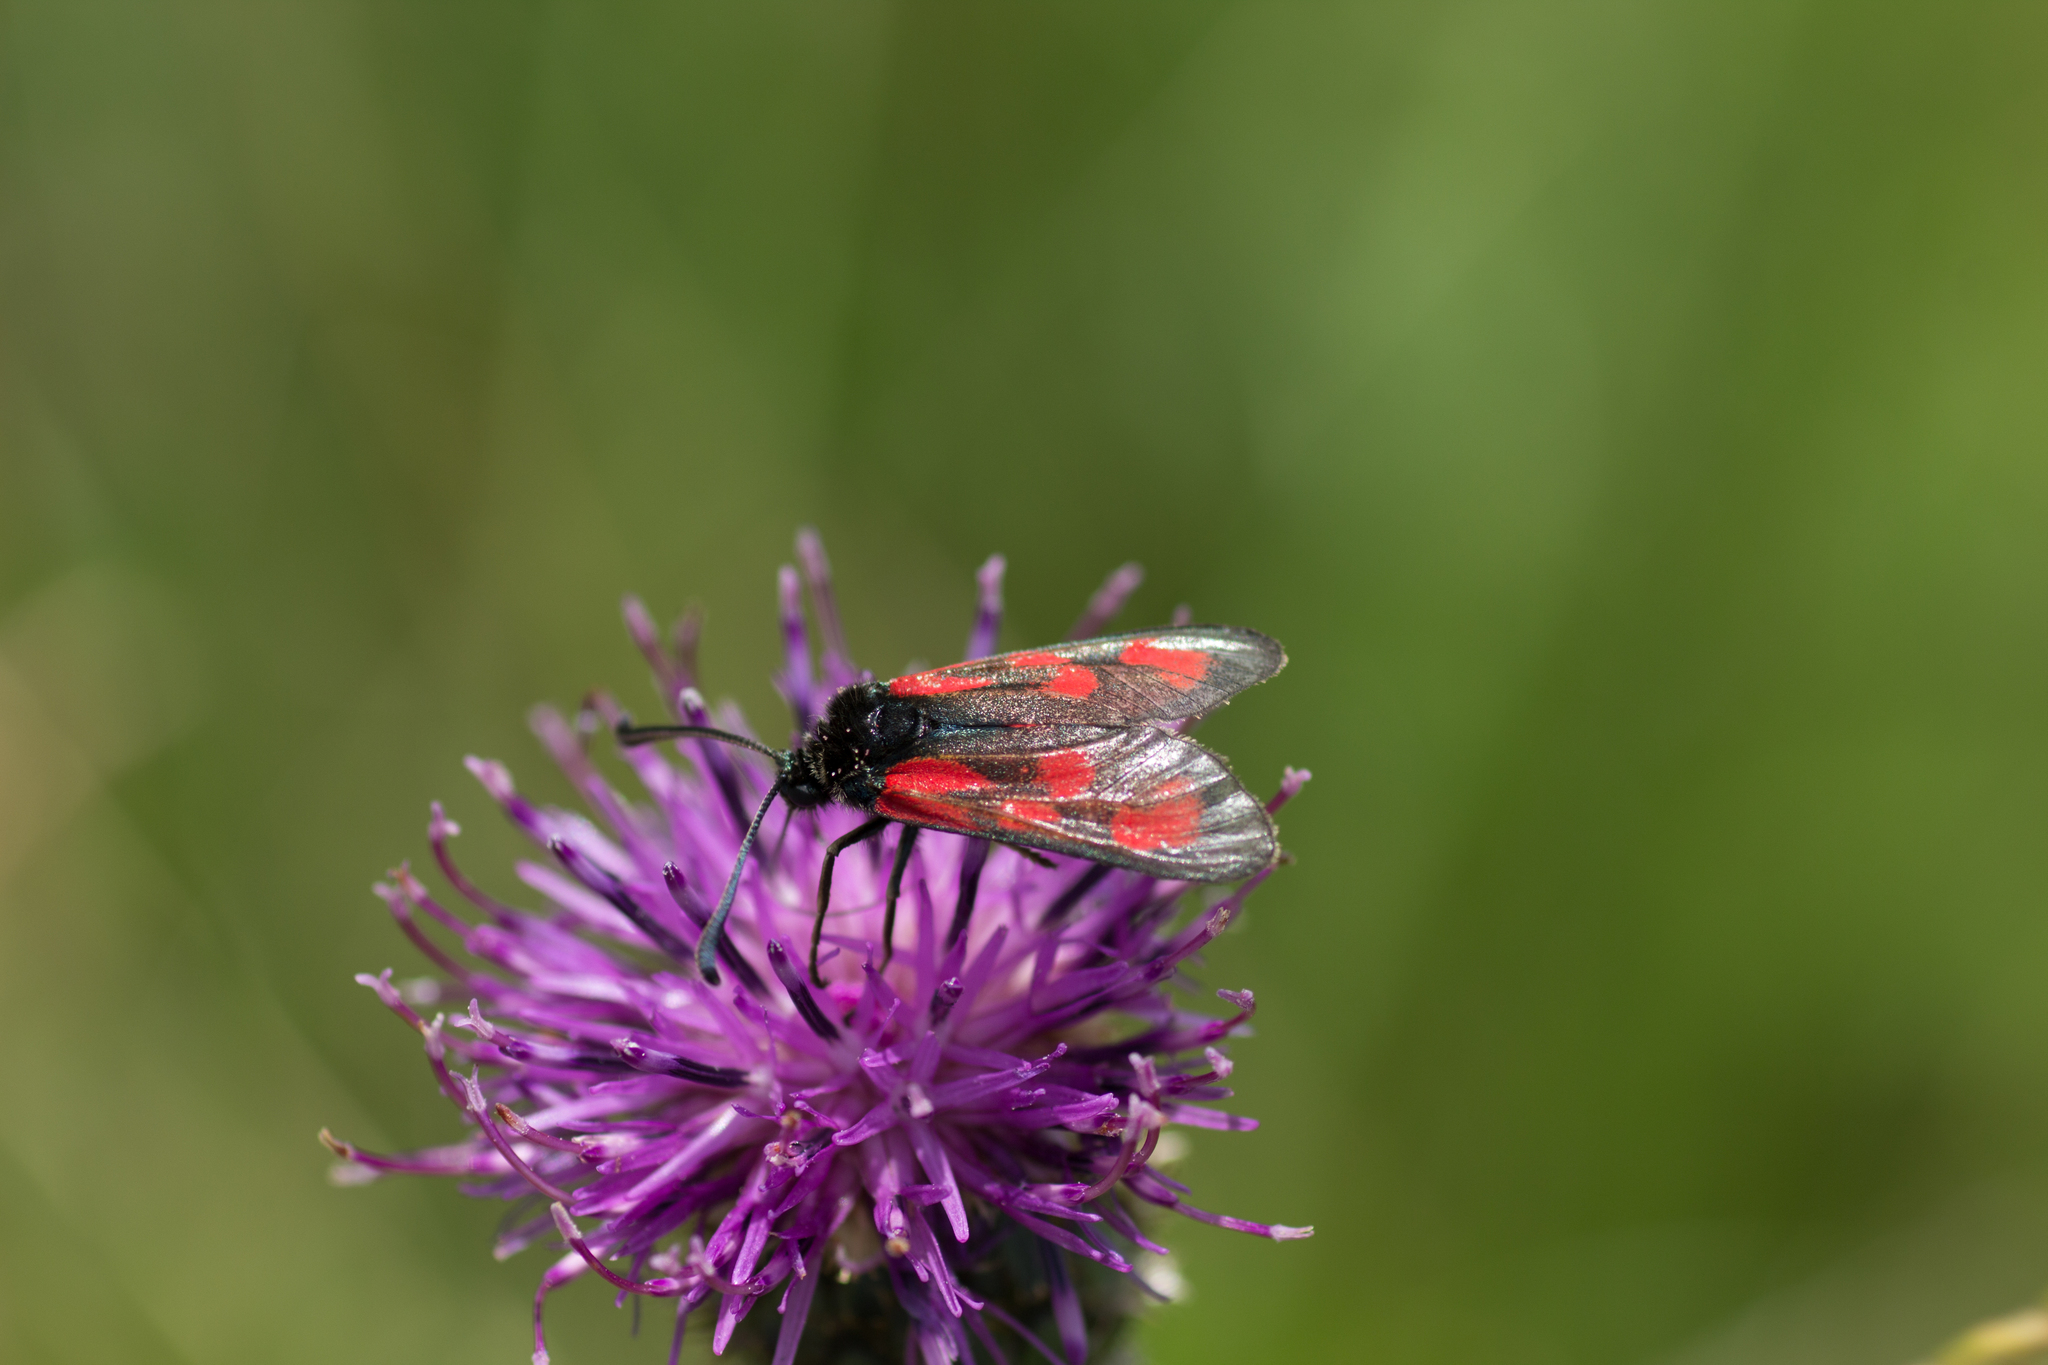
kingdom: Animalia
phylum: Arthropoda
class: Insecta
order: Lepidoptera
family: Zygaenidae
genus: Zygaena
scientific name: Zygaena loti
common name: Slender scotch burnet
